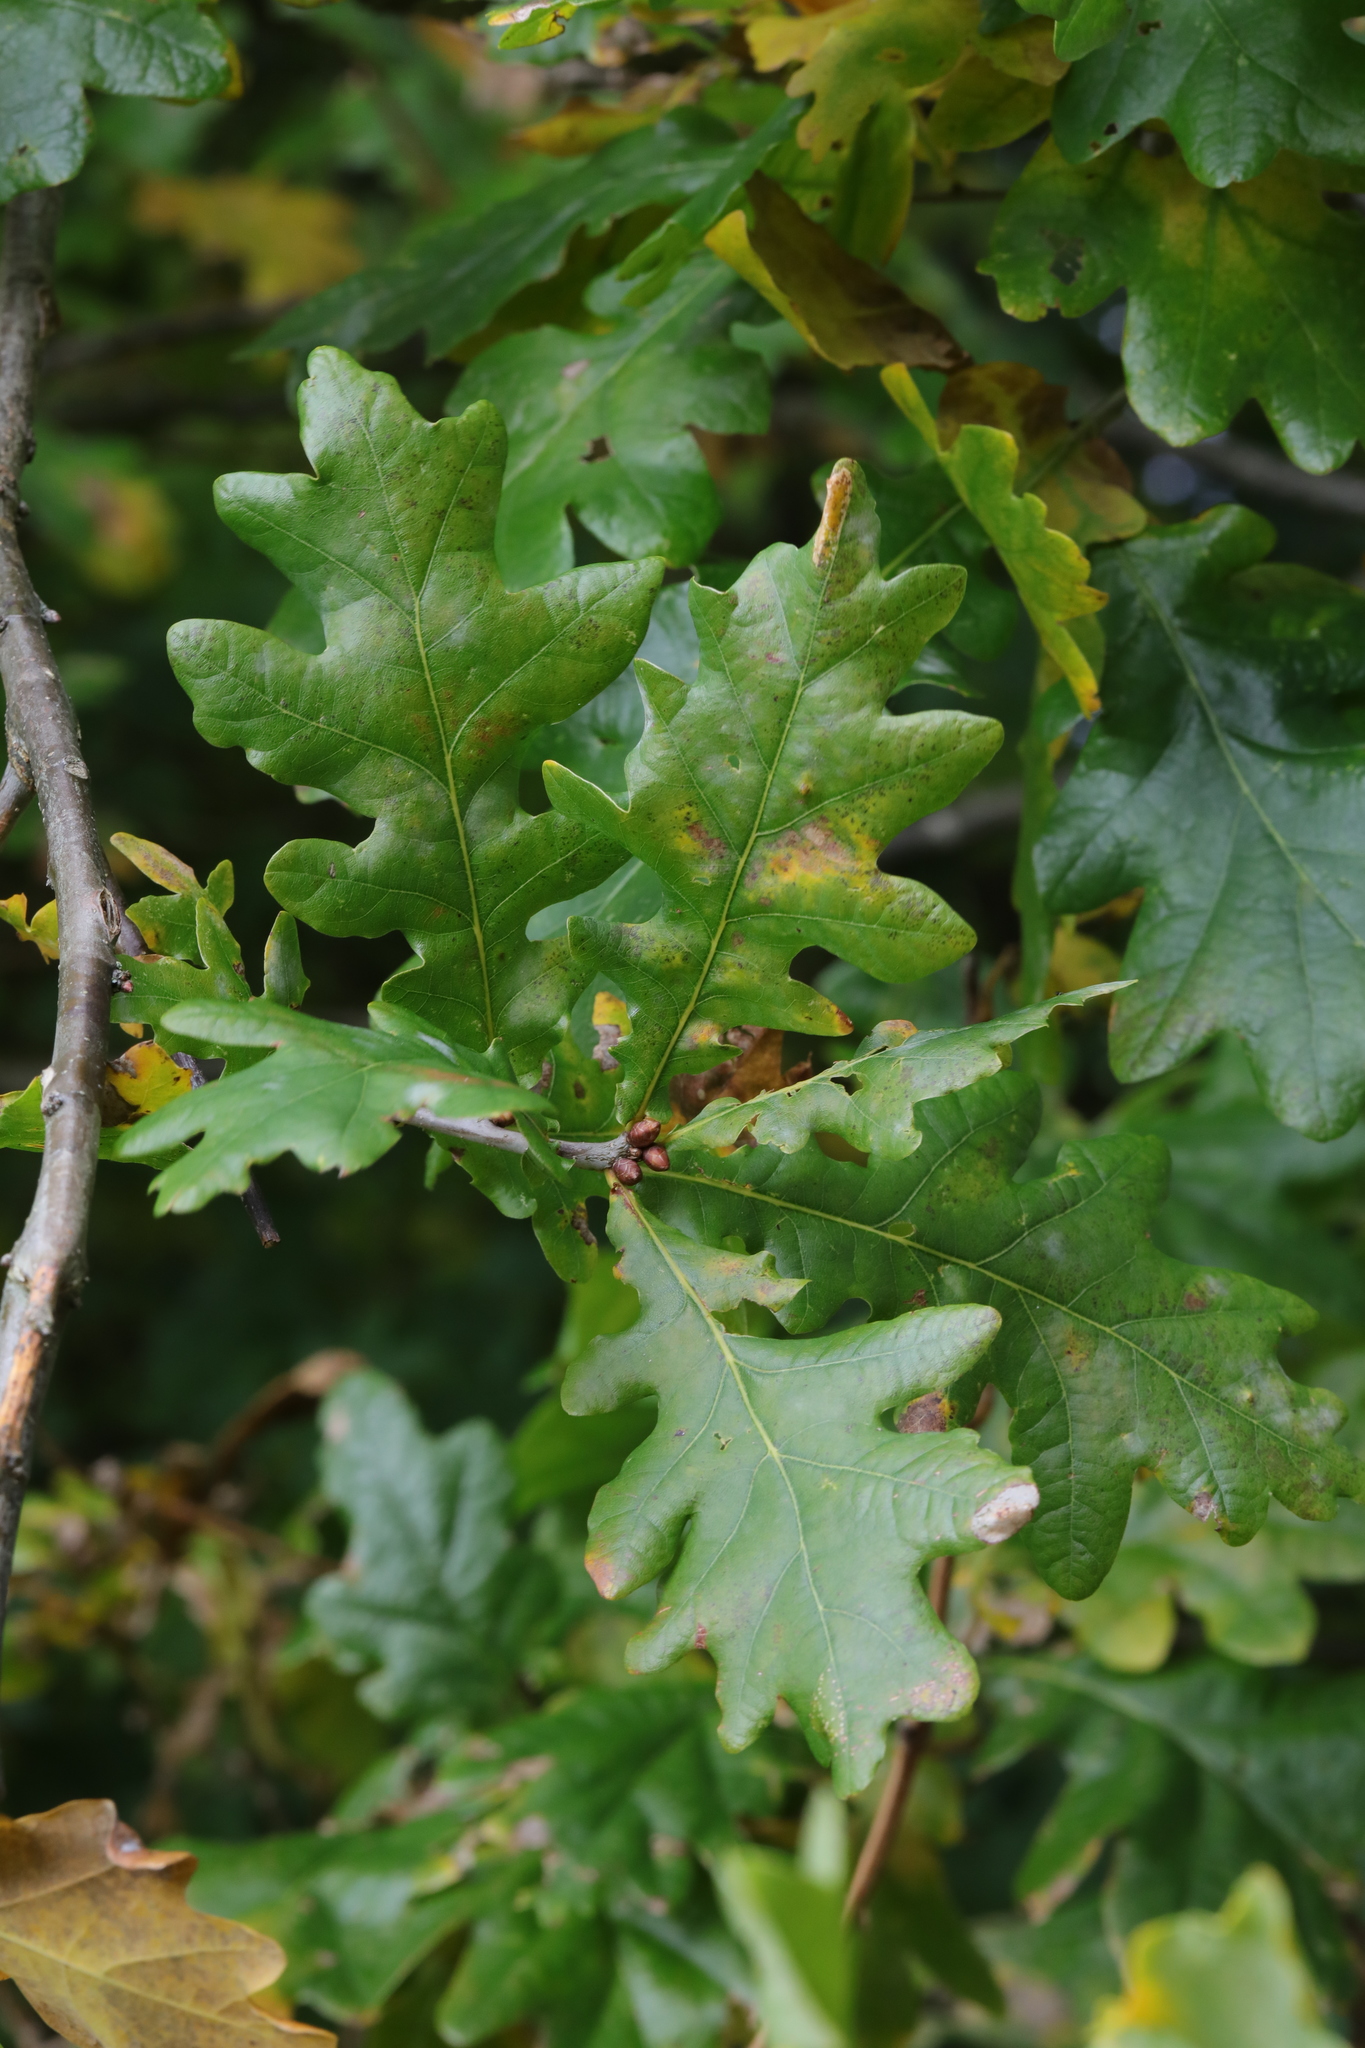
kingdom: Plantae
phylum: Tracheophyta
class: Magnoliopsida
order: Fagales
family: Fagaceae
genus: Quercus
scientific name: Quercus robur
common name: Pedunculate oak
